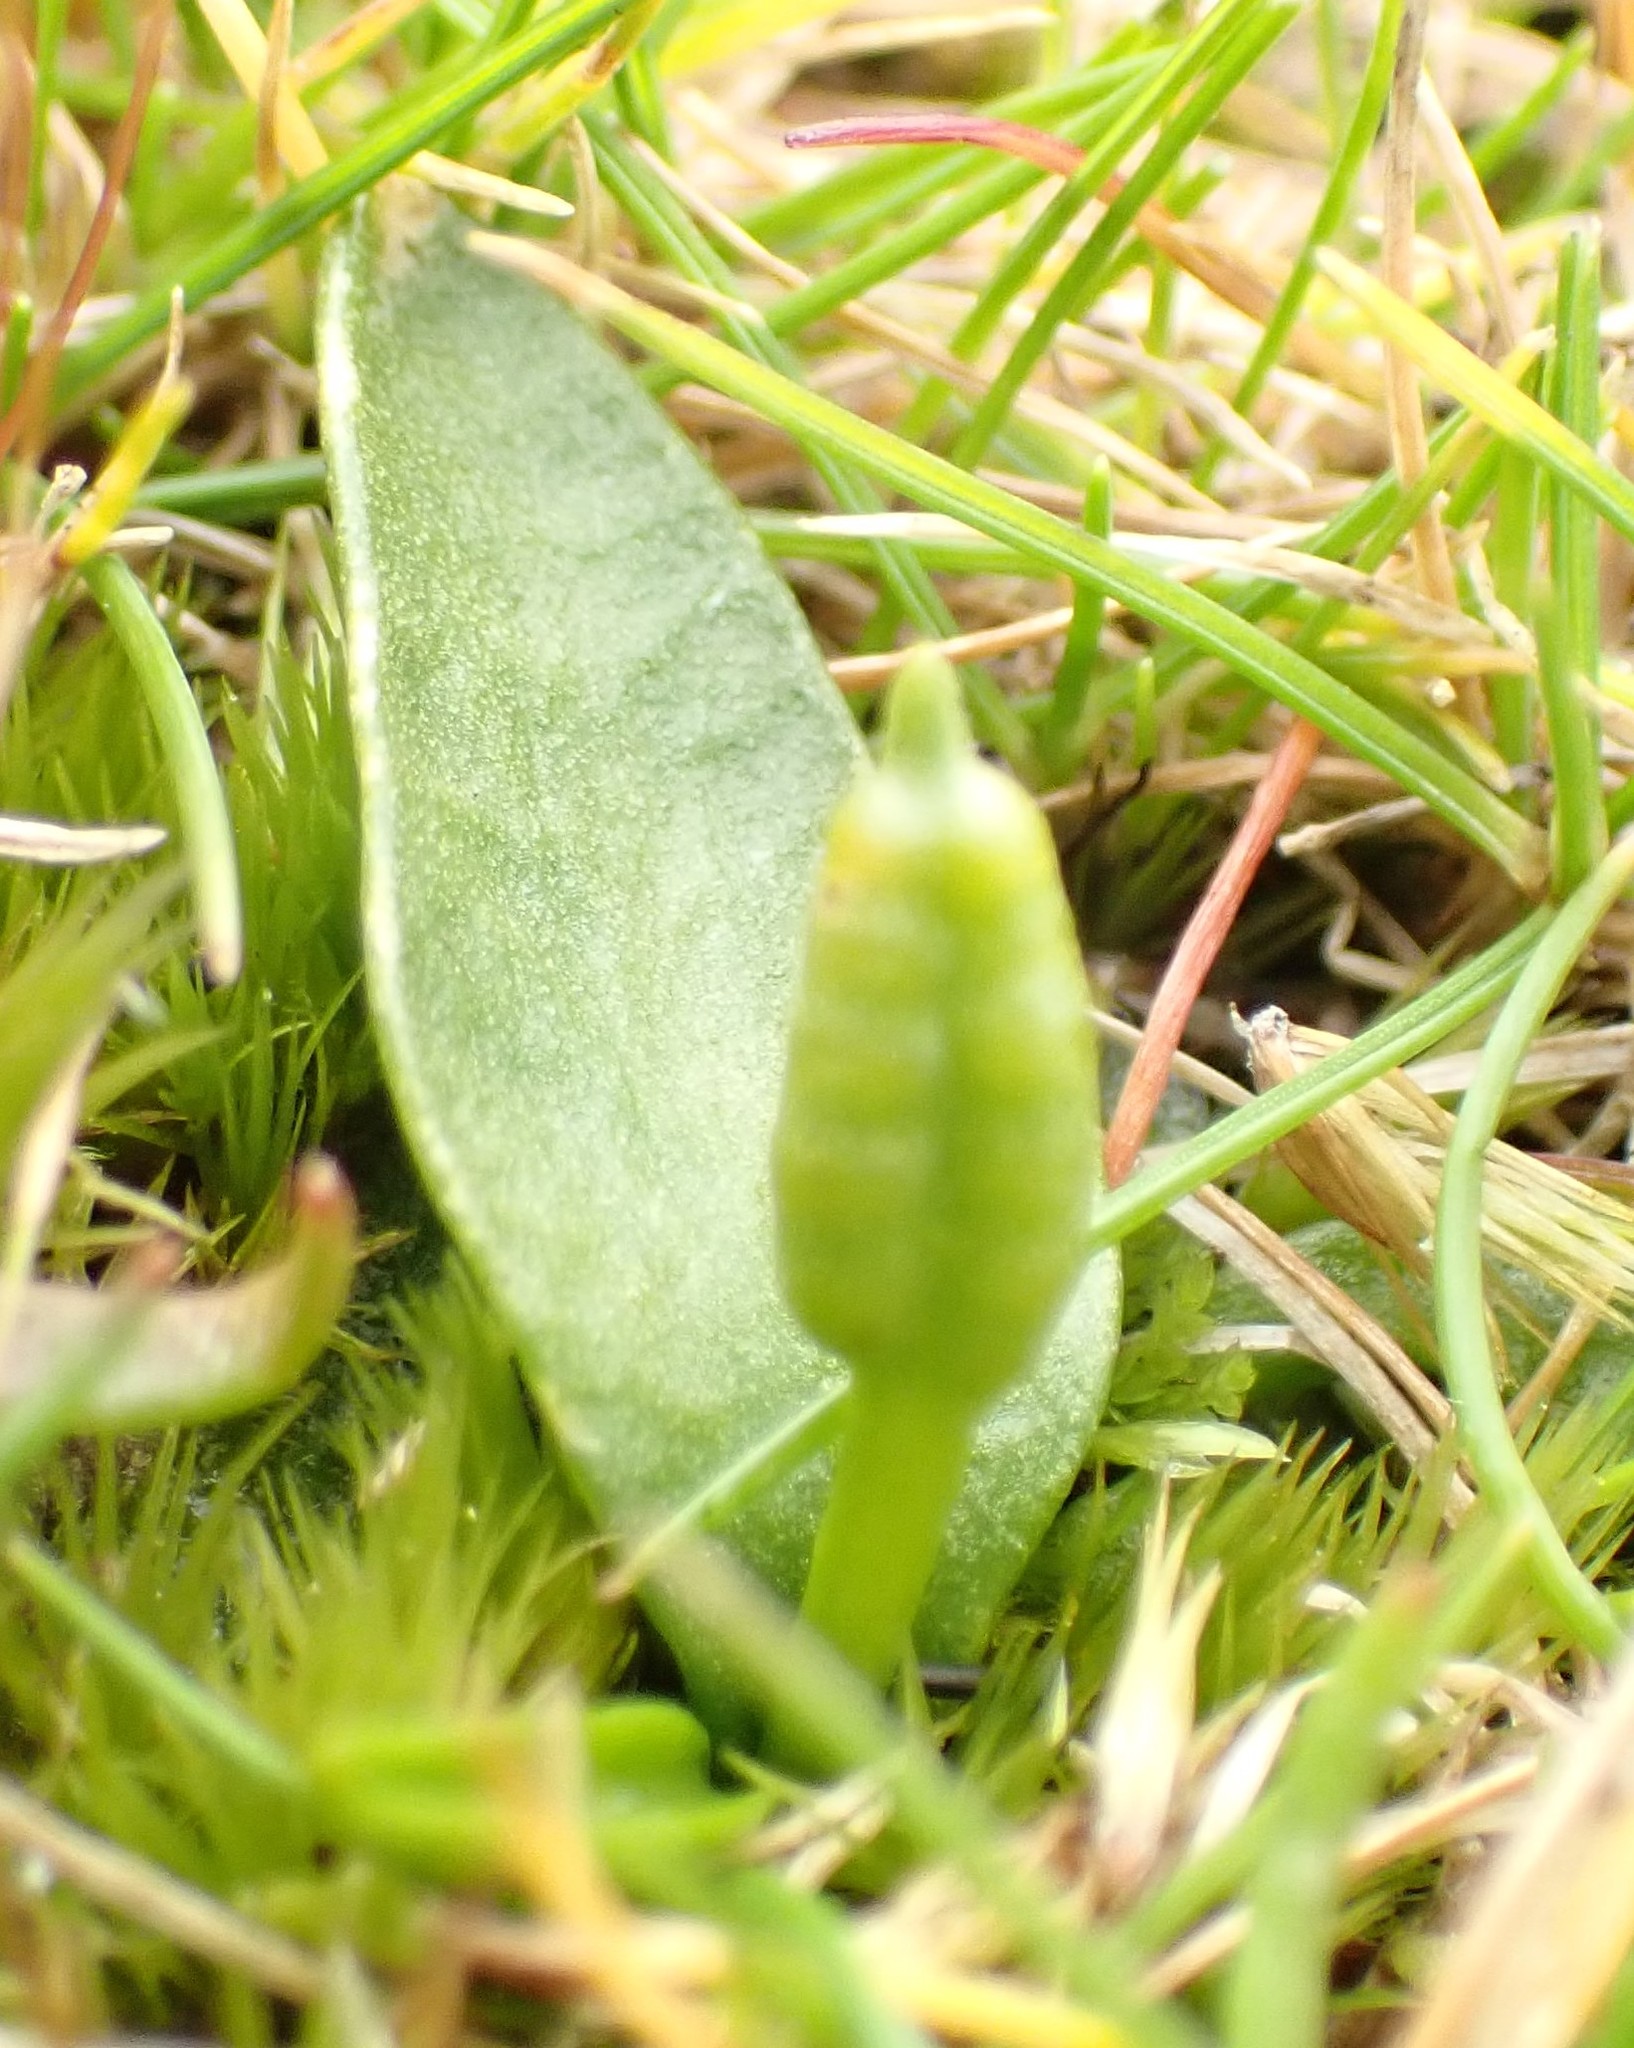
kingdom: Plantae
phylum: Tracheophyta
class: Polypodiopsida
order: Ophioglossales
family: Ophioglossaceae
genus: Ophioglossum
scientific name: Ophioglossum lusitanicum
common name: Least adder's-tongue
